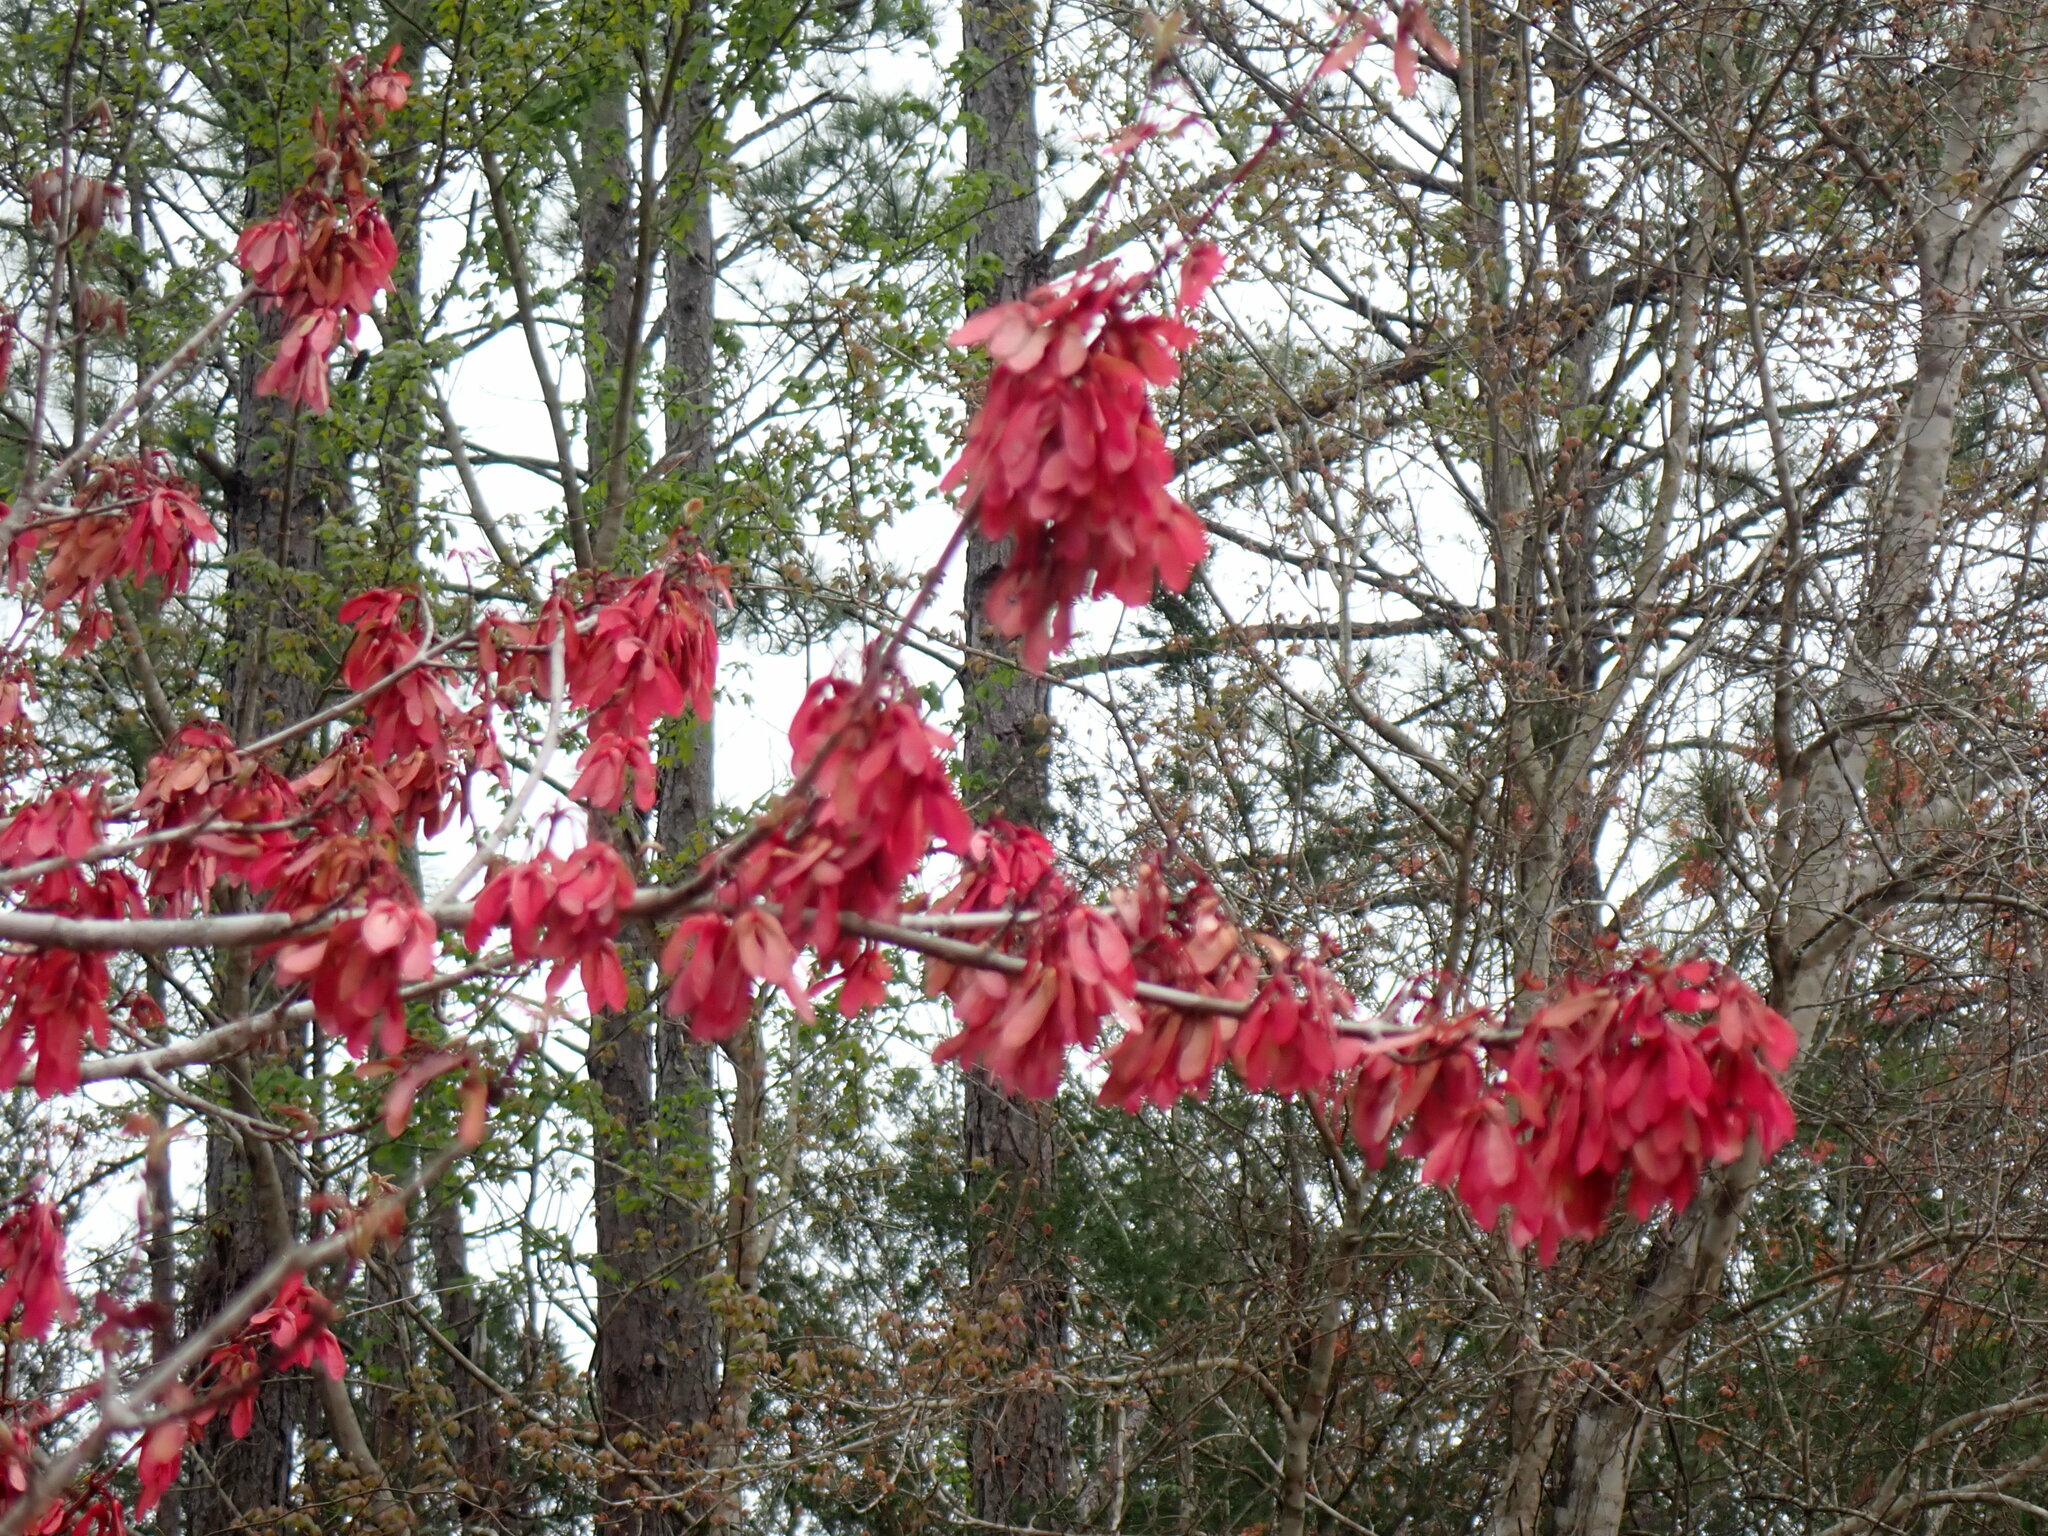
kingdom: Plantae
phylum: Tracheophyta
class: Magnoliopsida
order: Sapindales
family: Sapindaceae
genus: Acer
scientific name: Acer rubrum
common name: Red maple
